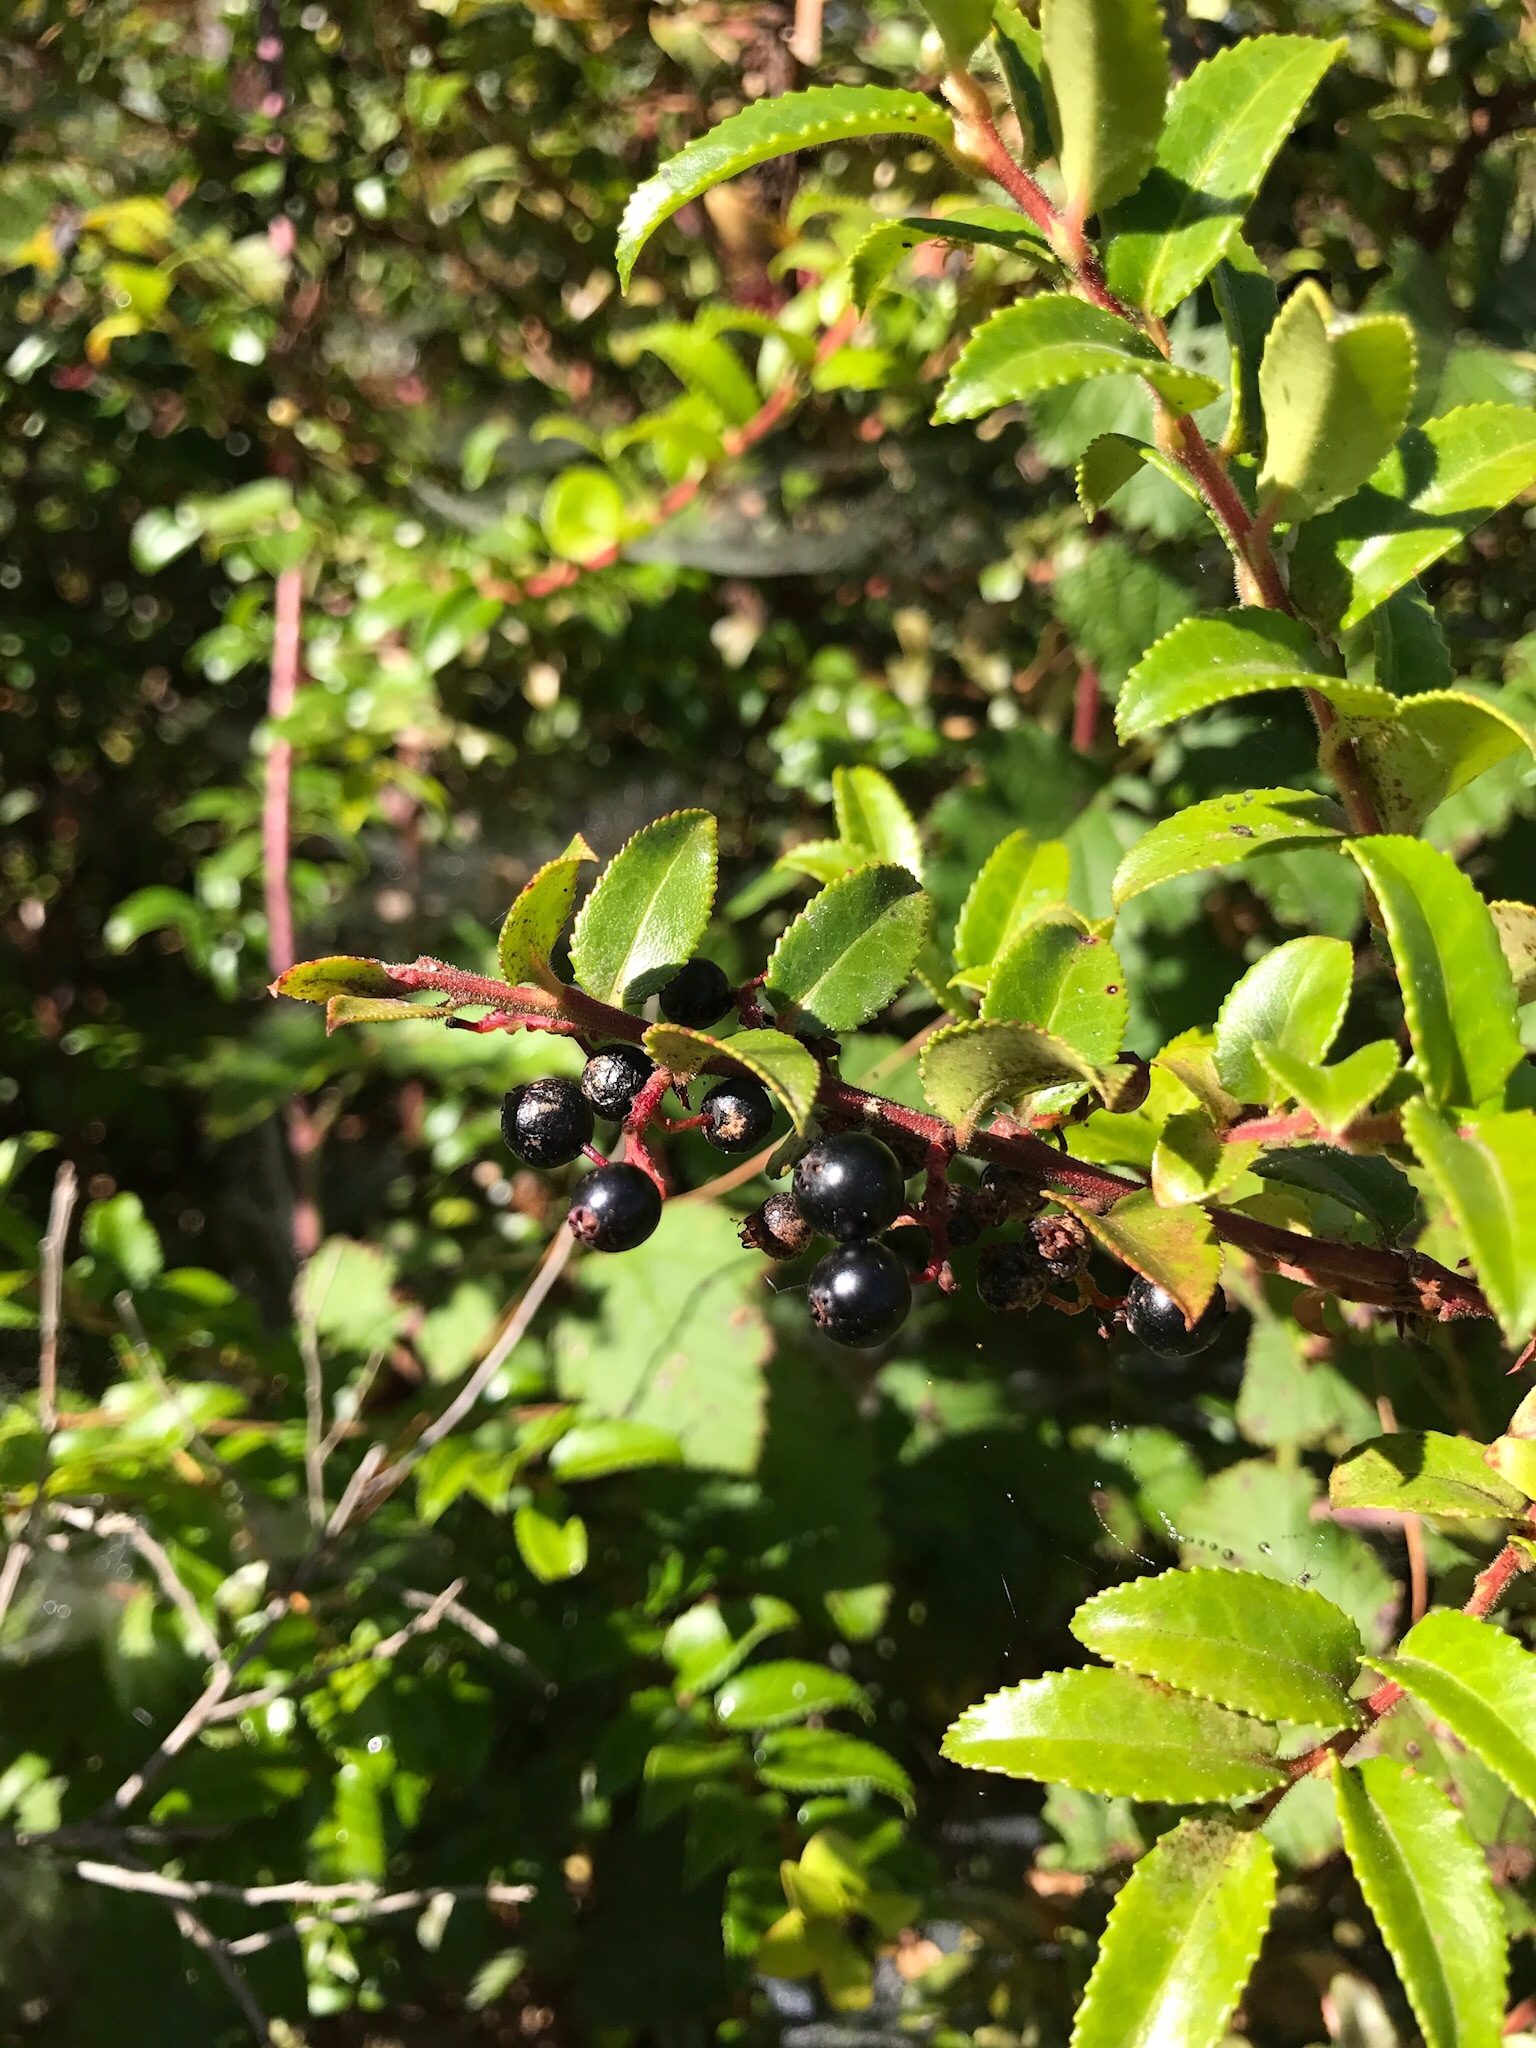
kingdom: Plantae
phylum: Tracheophyta
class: Magnoliopsida
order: Ericales
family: Ericaceae
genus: Vaccinium
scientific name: Vaccinium ovatum
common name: California-huckleberry
